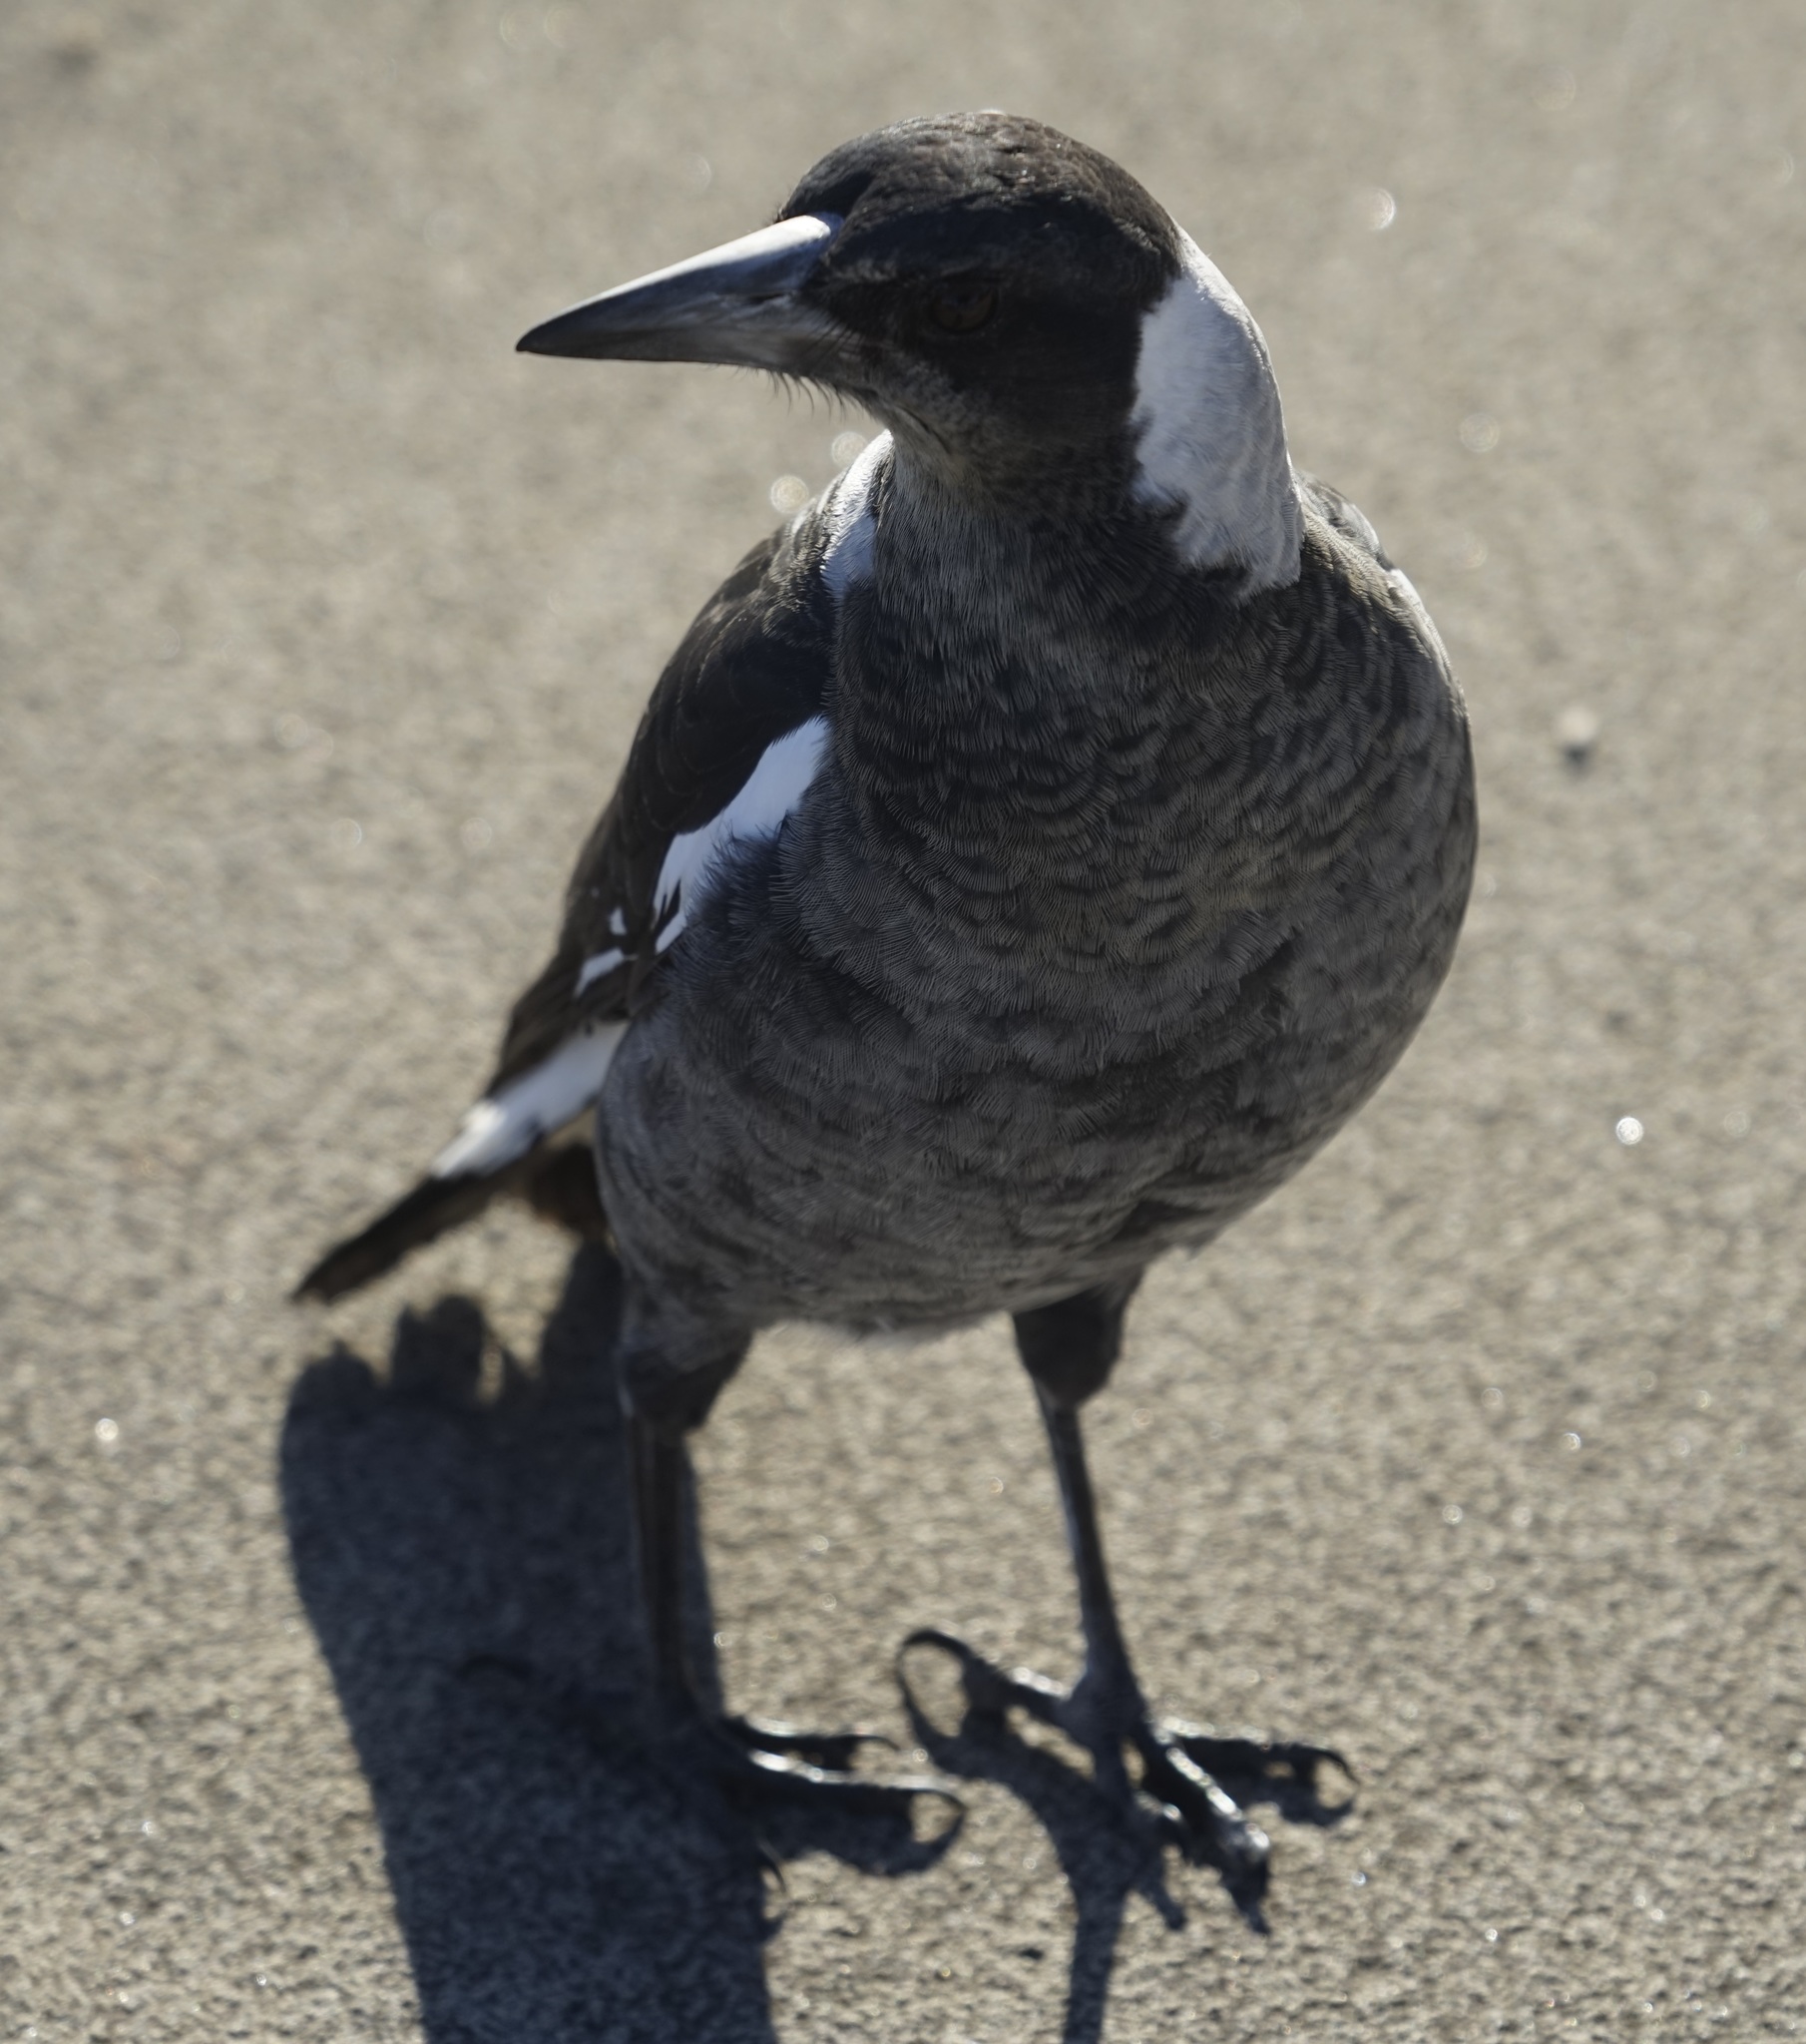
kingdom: Animalia
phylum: Chordata
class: Aves
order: Passeriformes
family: Cracticidae
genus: Gymnorhina
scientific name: Gymnorhina tibicen
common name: Australian magpie
